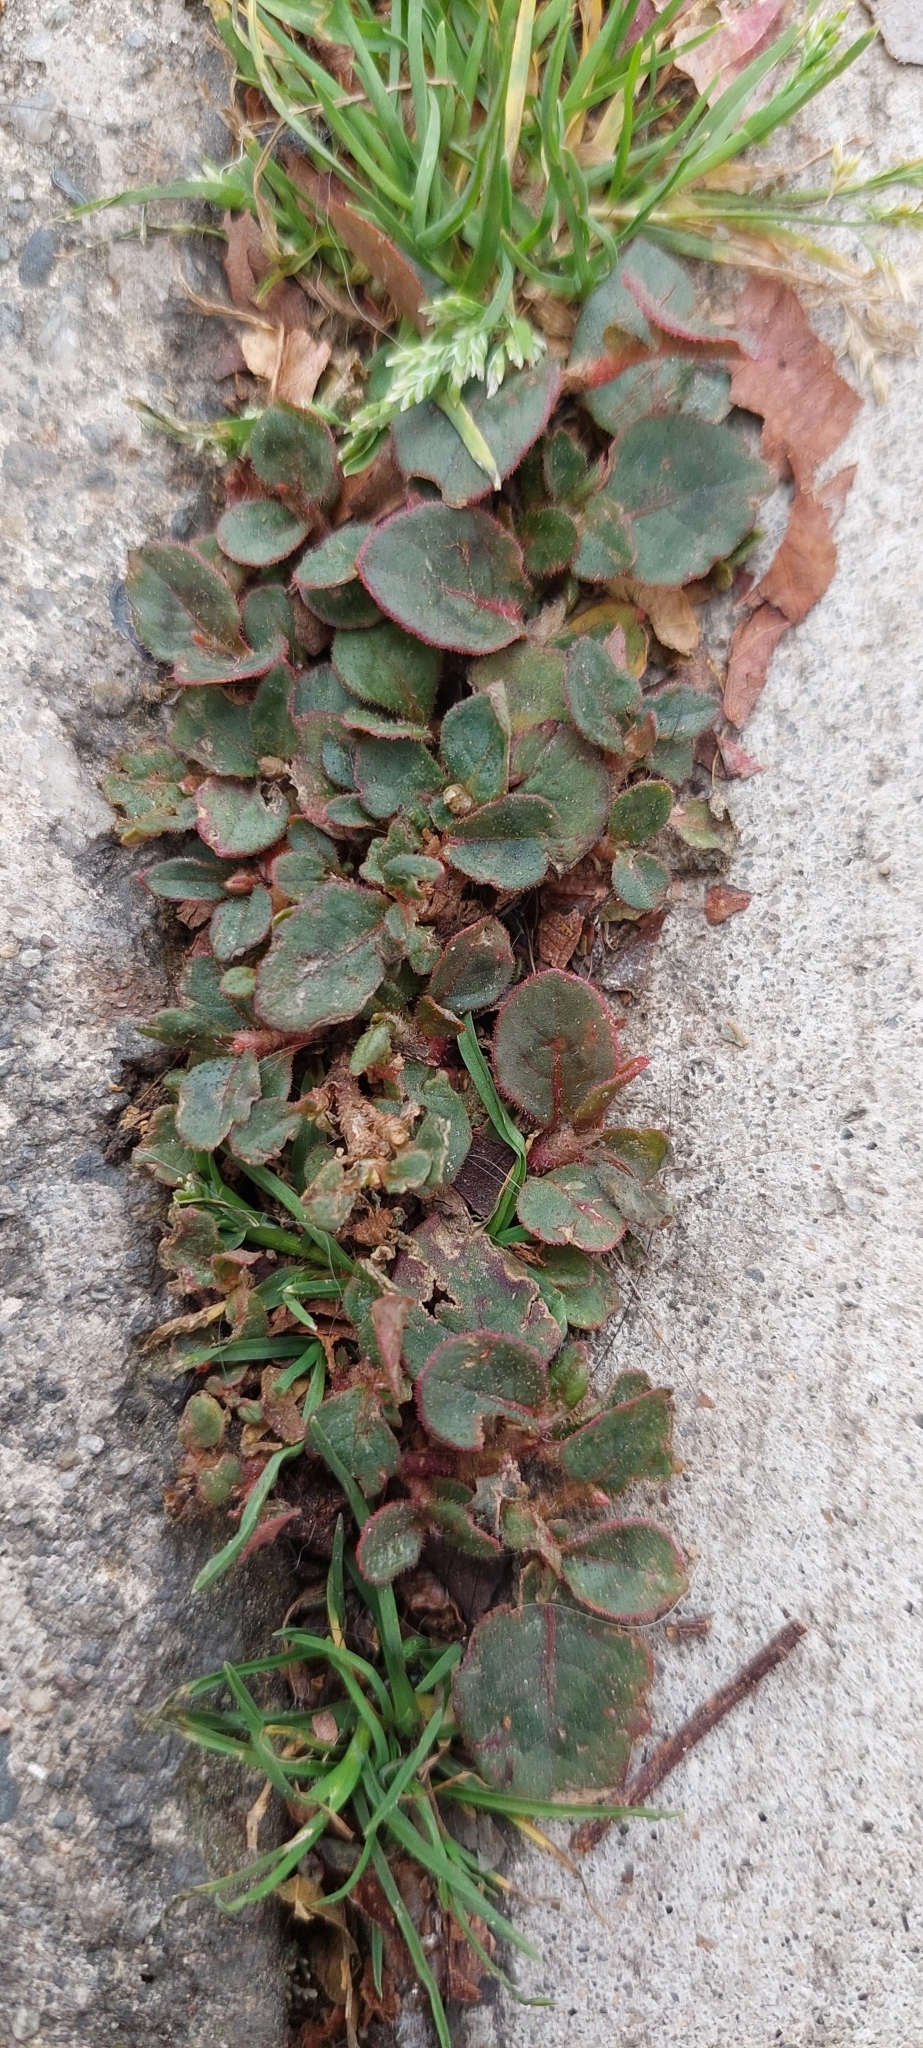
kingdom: Plantae
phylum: Tracheophyta
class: Magnoliopsida
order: Caryophyllales
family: Polygonaceae
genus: Persicaria
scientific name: Persicaria capitata
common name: Pinkhead smartweed
